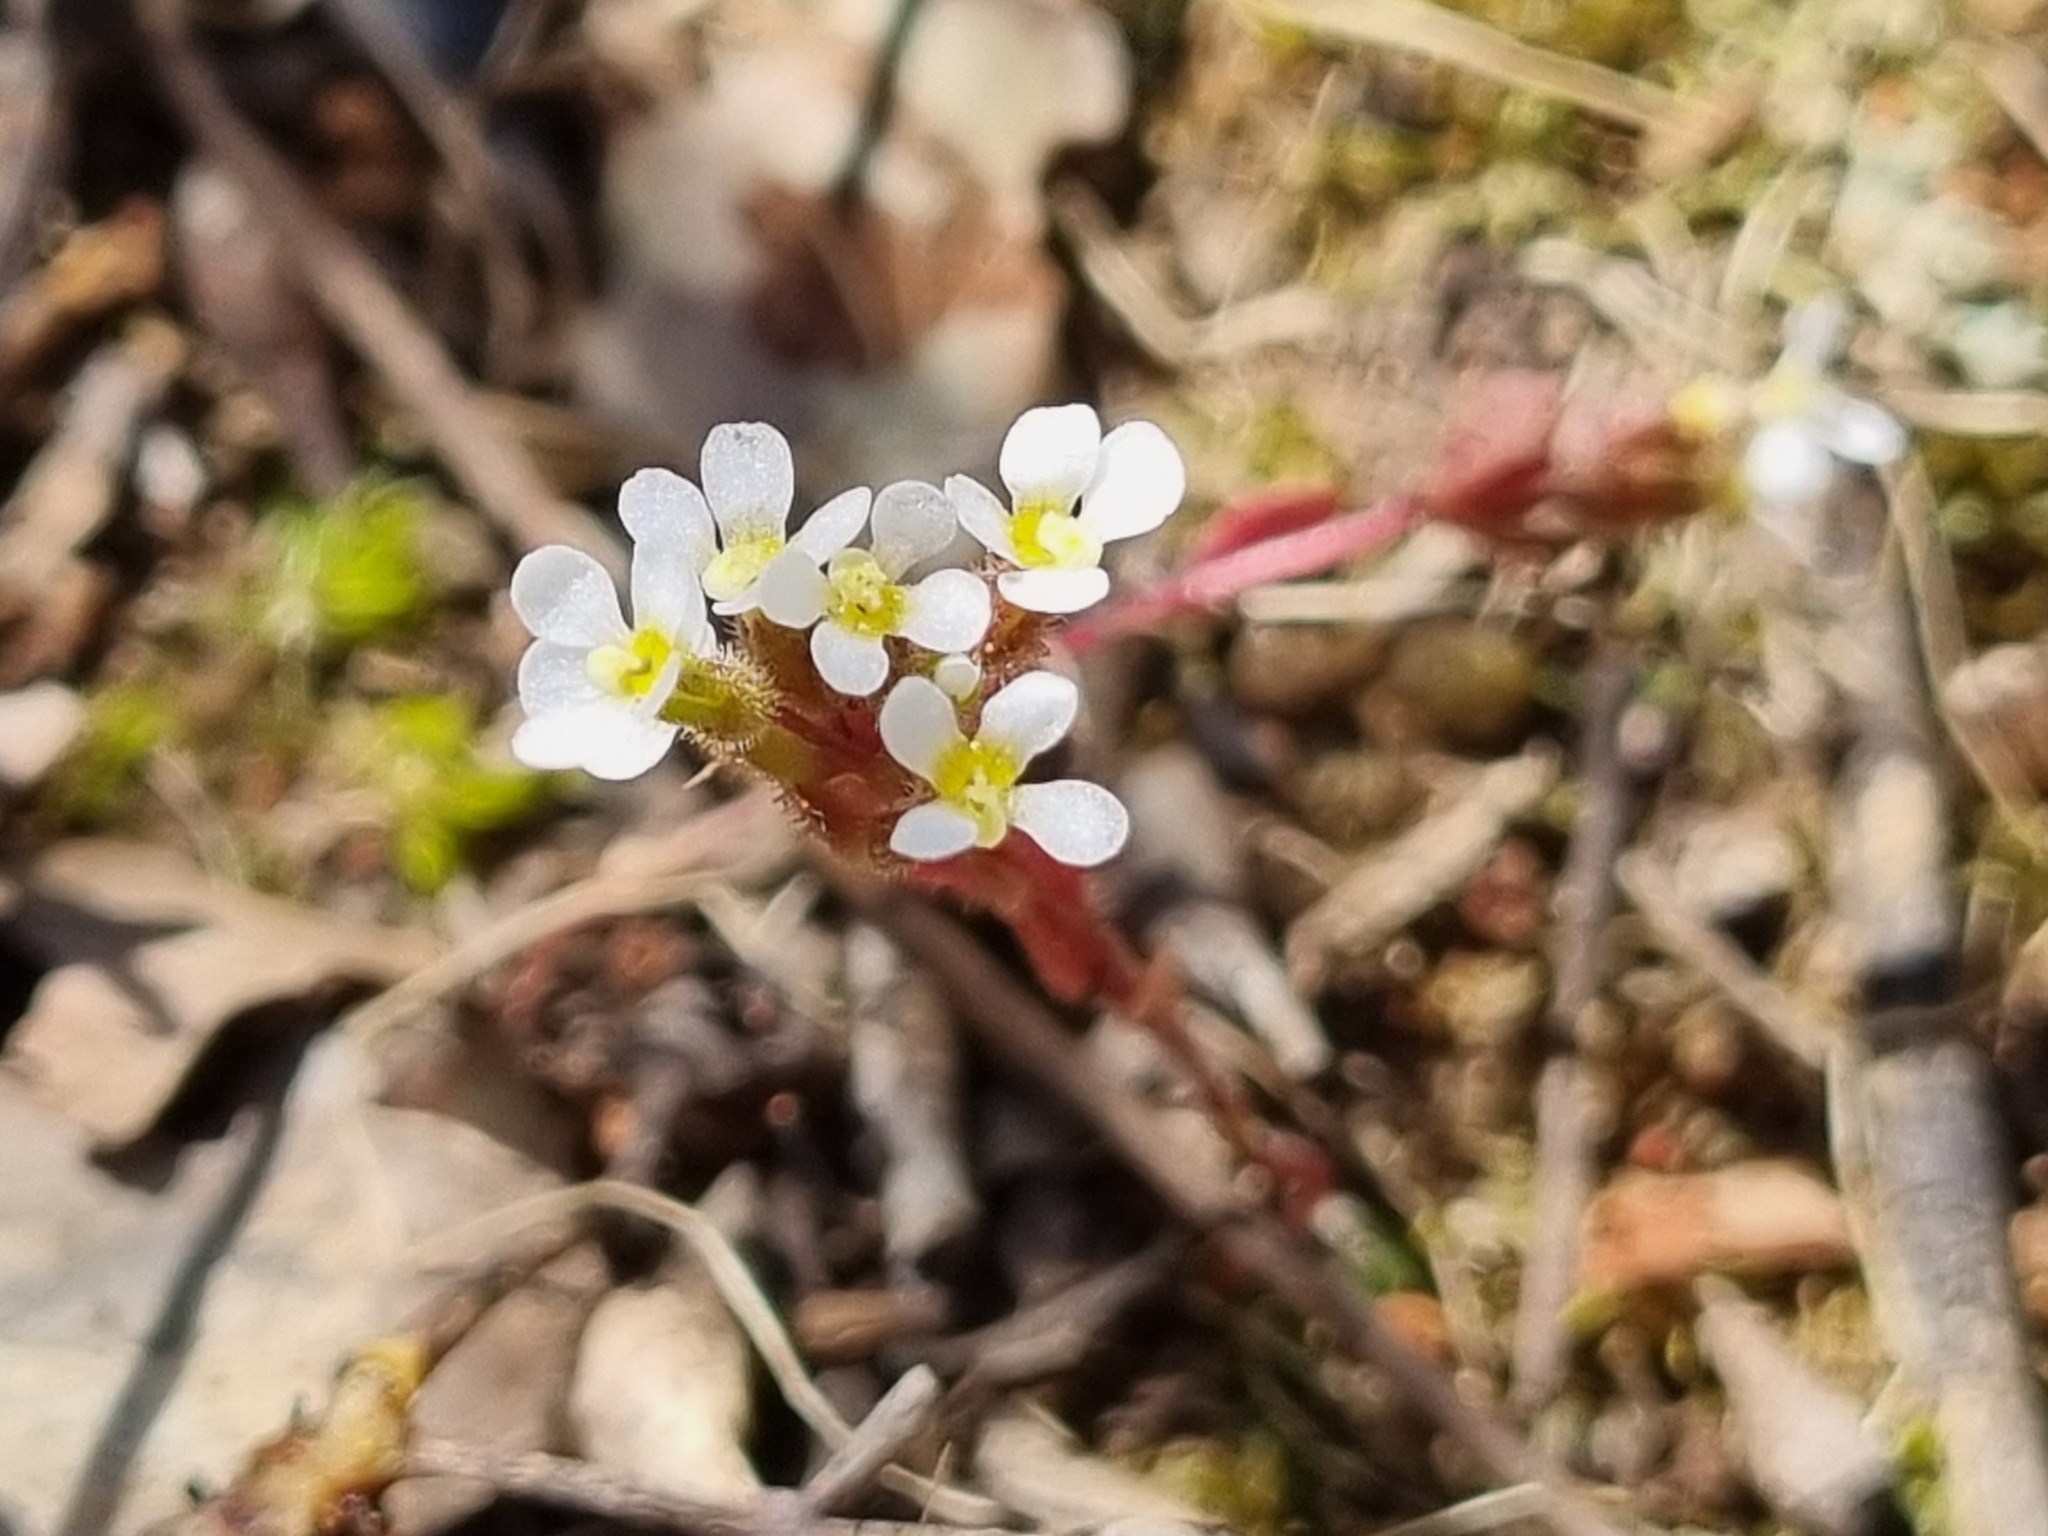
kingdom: Plantae
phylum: Tracheophyta
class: Magnoliopsida
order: Asterales
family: Stylidiaceae
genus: Levenhookia
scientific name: Levenhookia dubia
